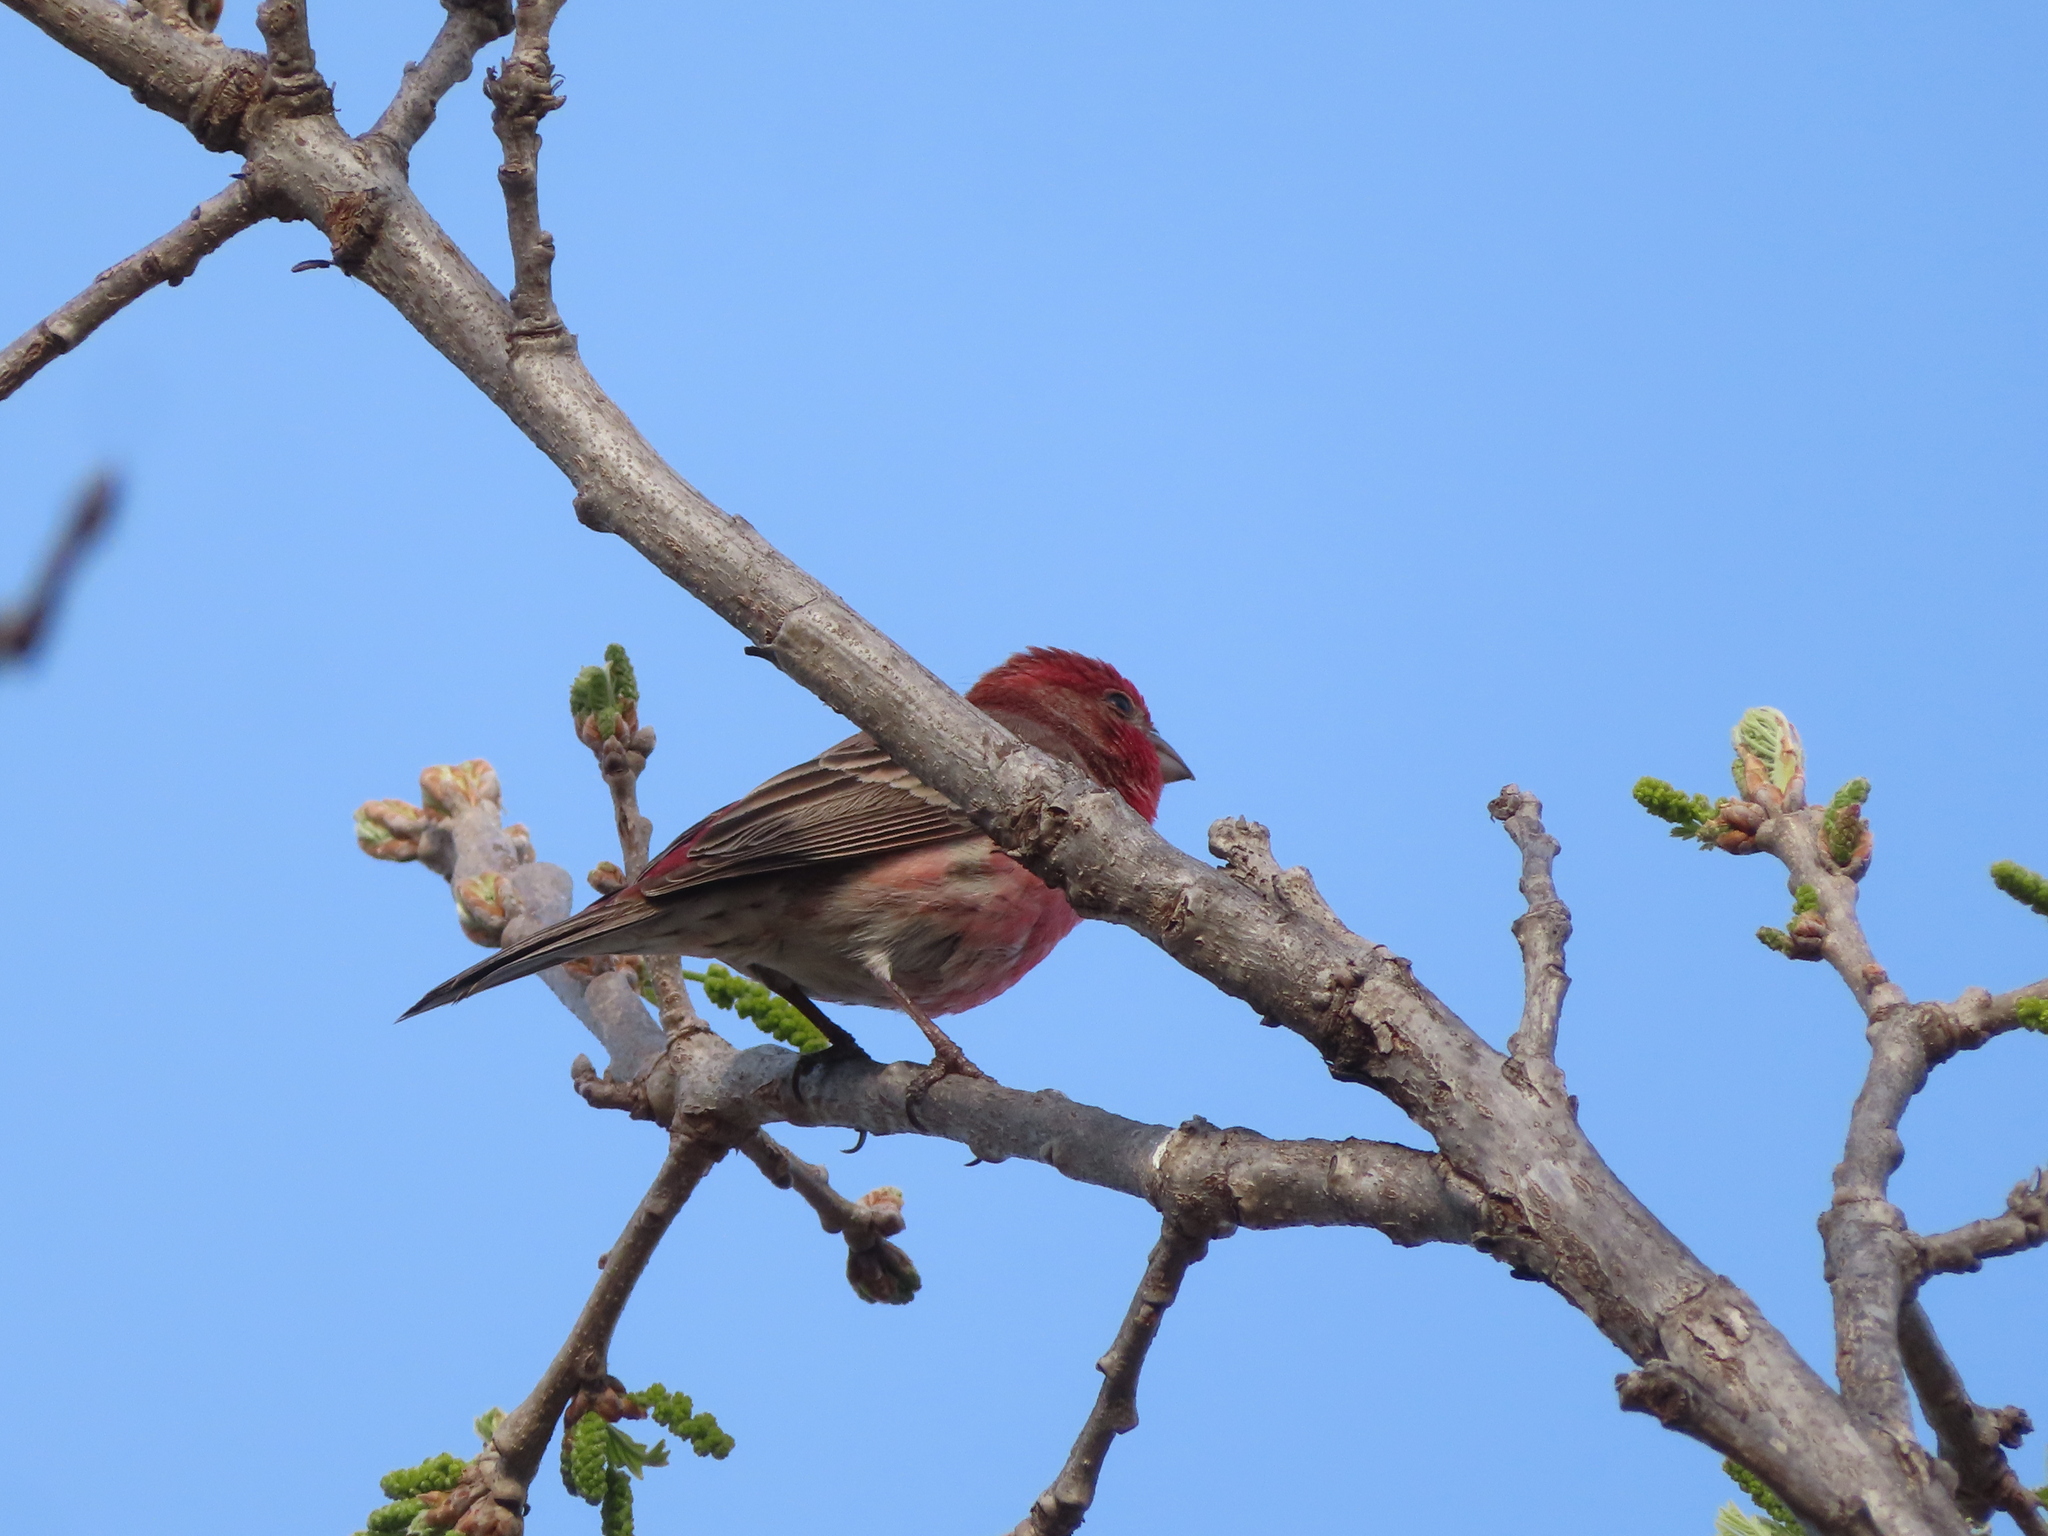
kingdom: Animalia
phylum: Chordata
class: Aves
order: Passeriformes
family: Fringillidae
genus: Haemorhous
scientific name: Haemorhous mexicanus
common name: House finch
